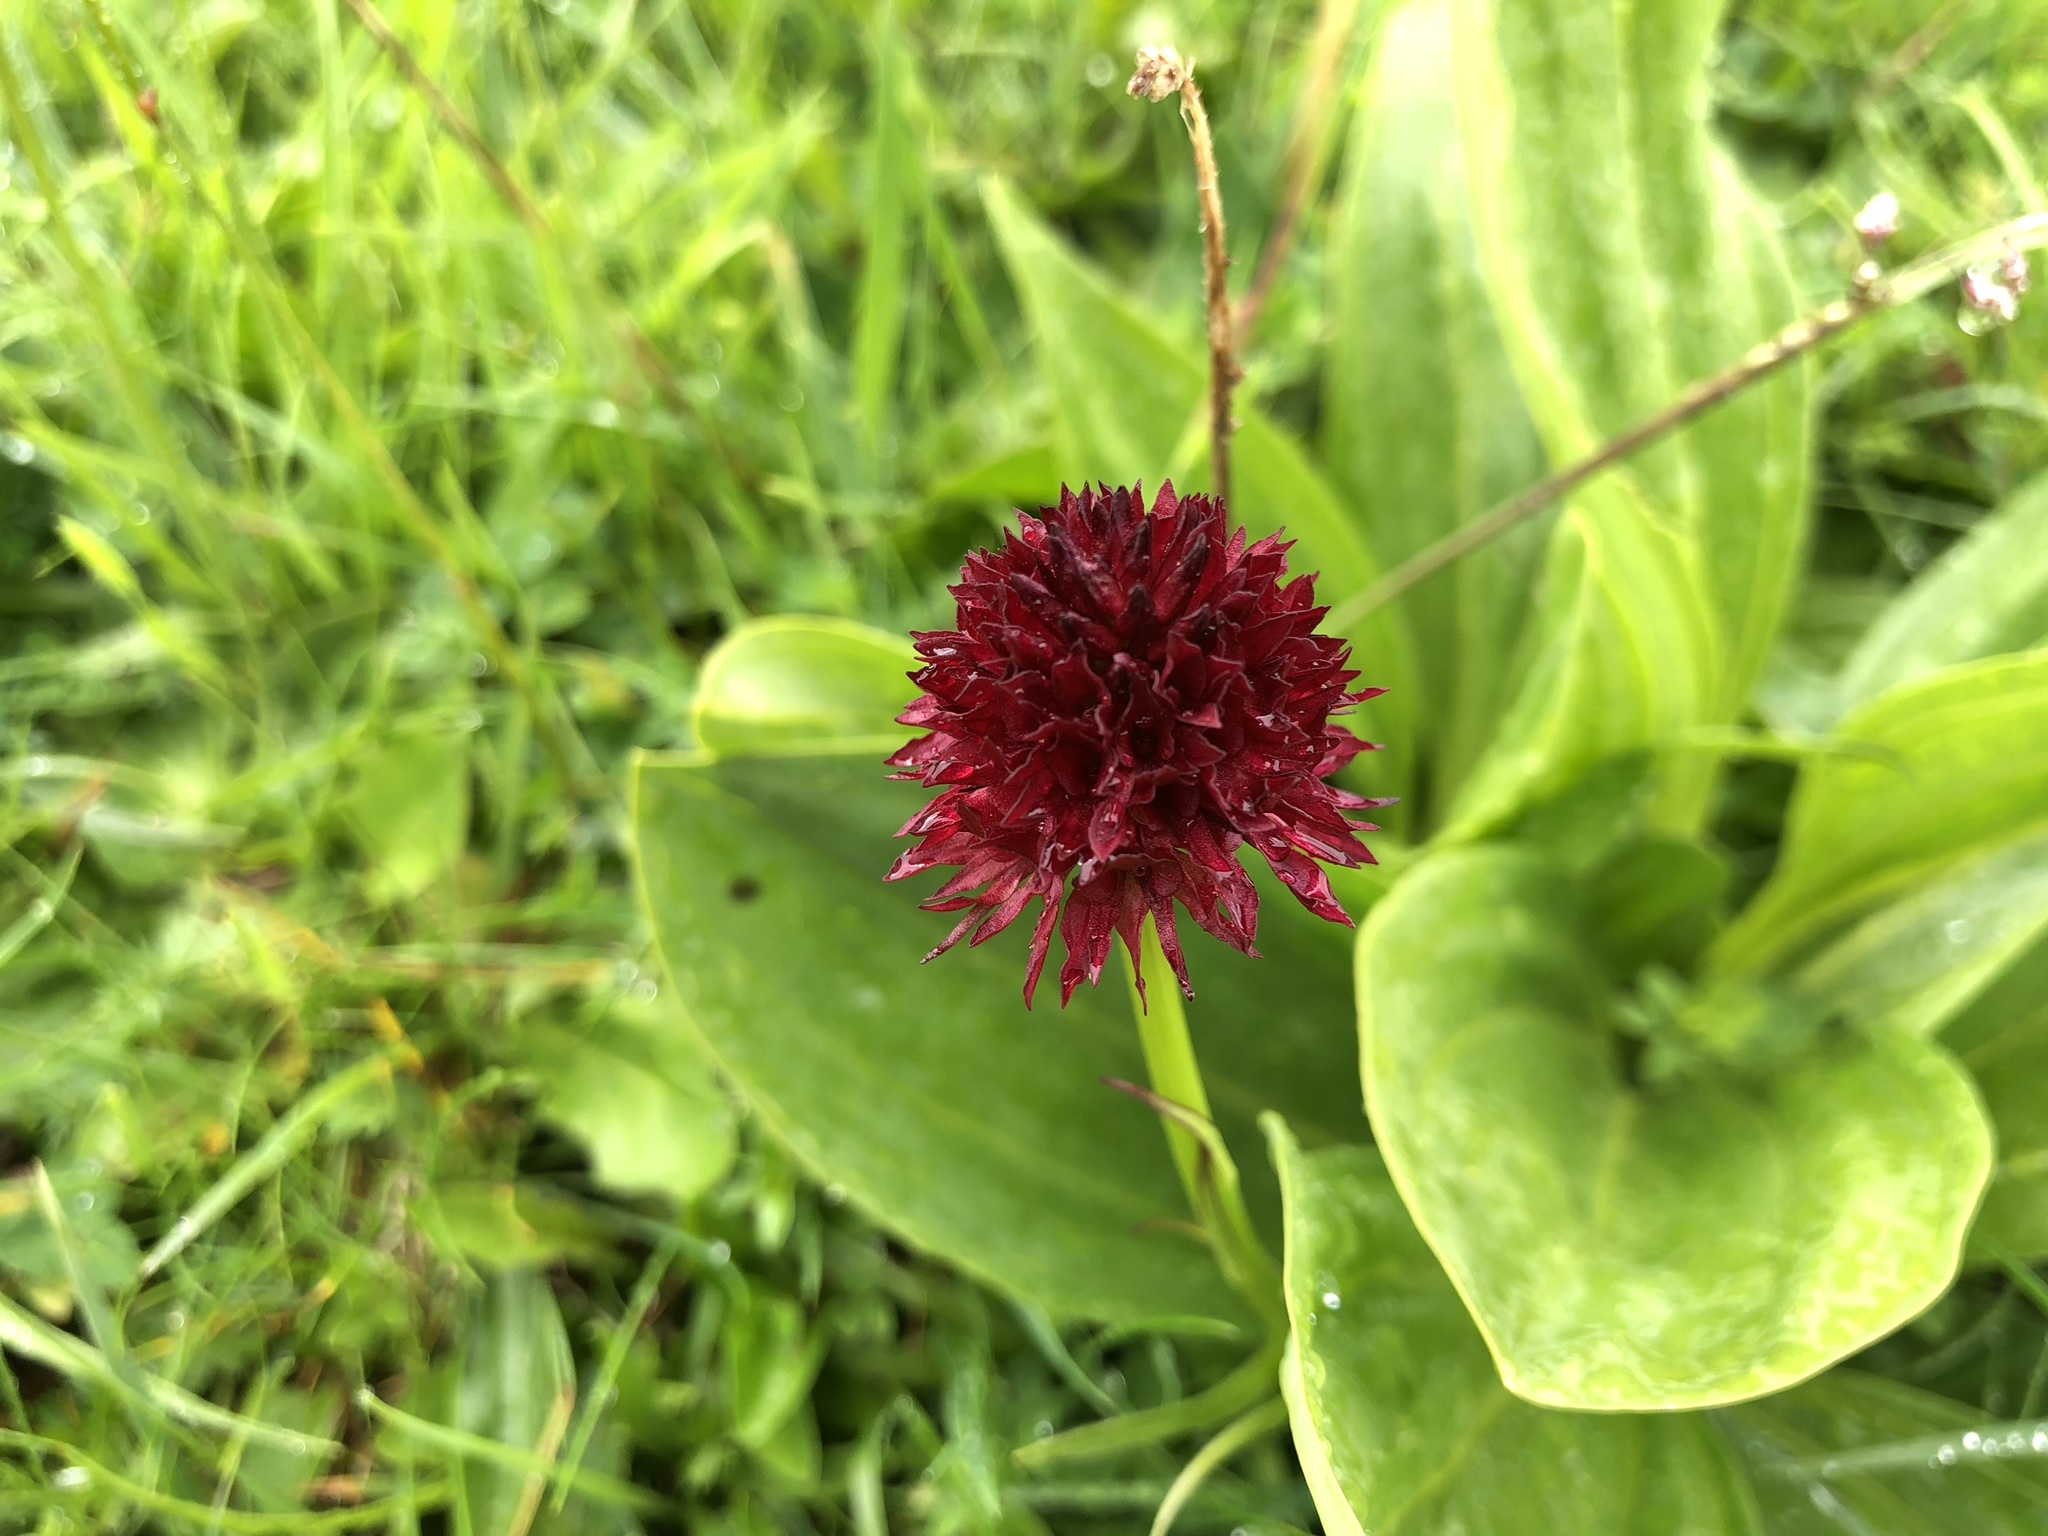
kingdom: Plantae
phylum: Tracheophyta
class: Liliopsida
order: Asparagales
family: Orchidaceae
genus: Gymnadenia
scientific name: Gymnadenia rhellicani
